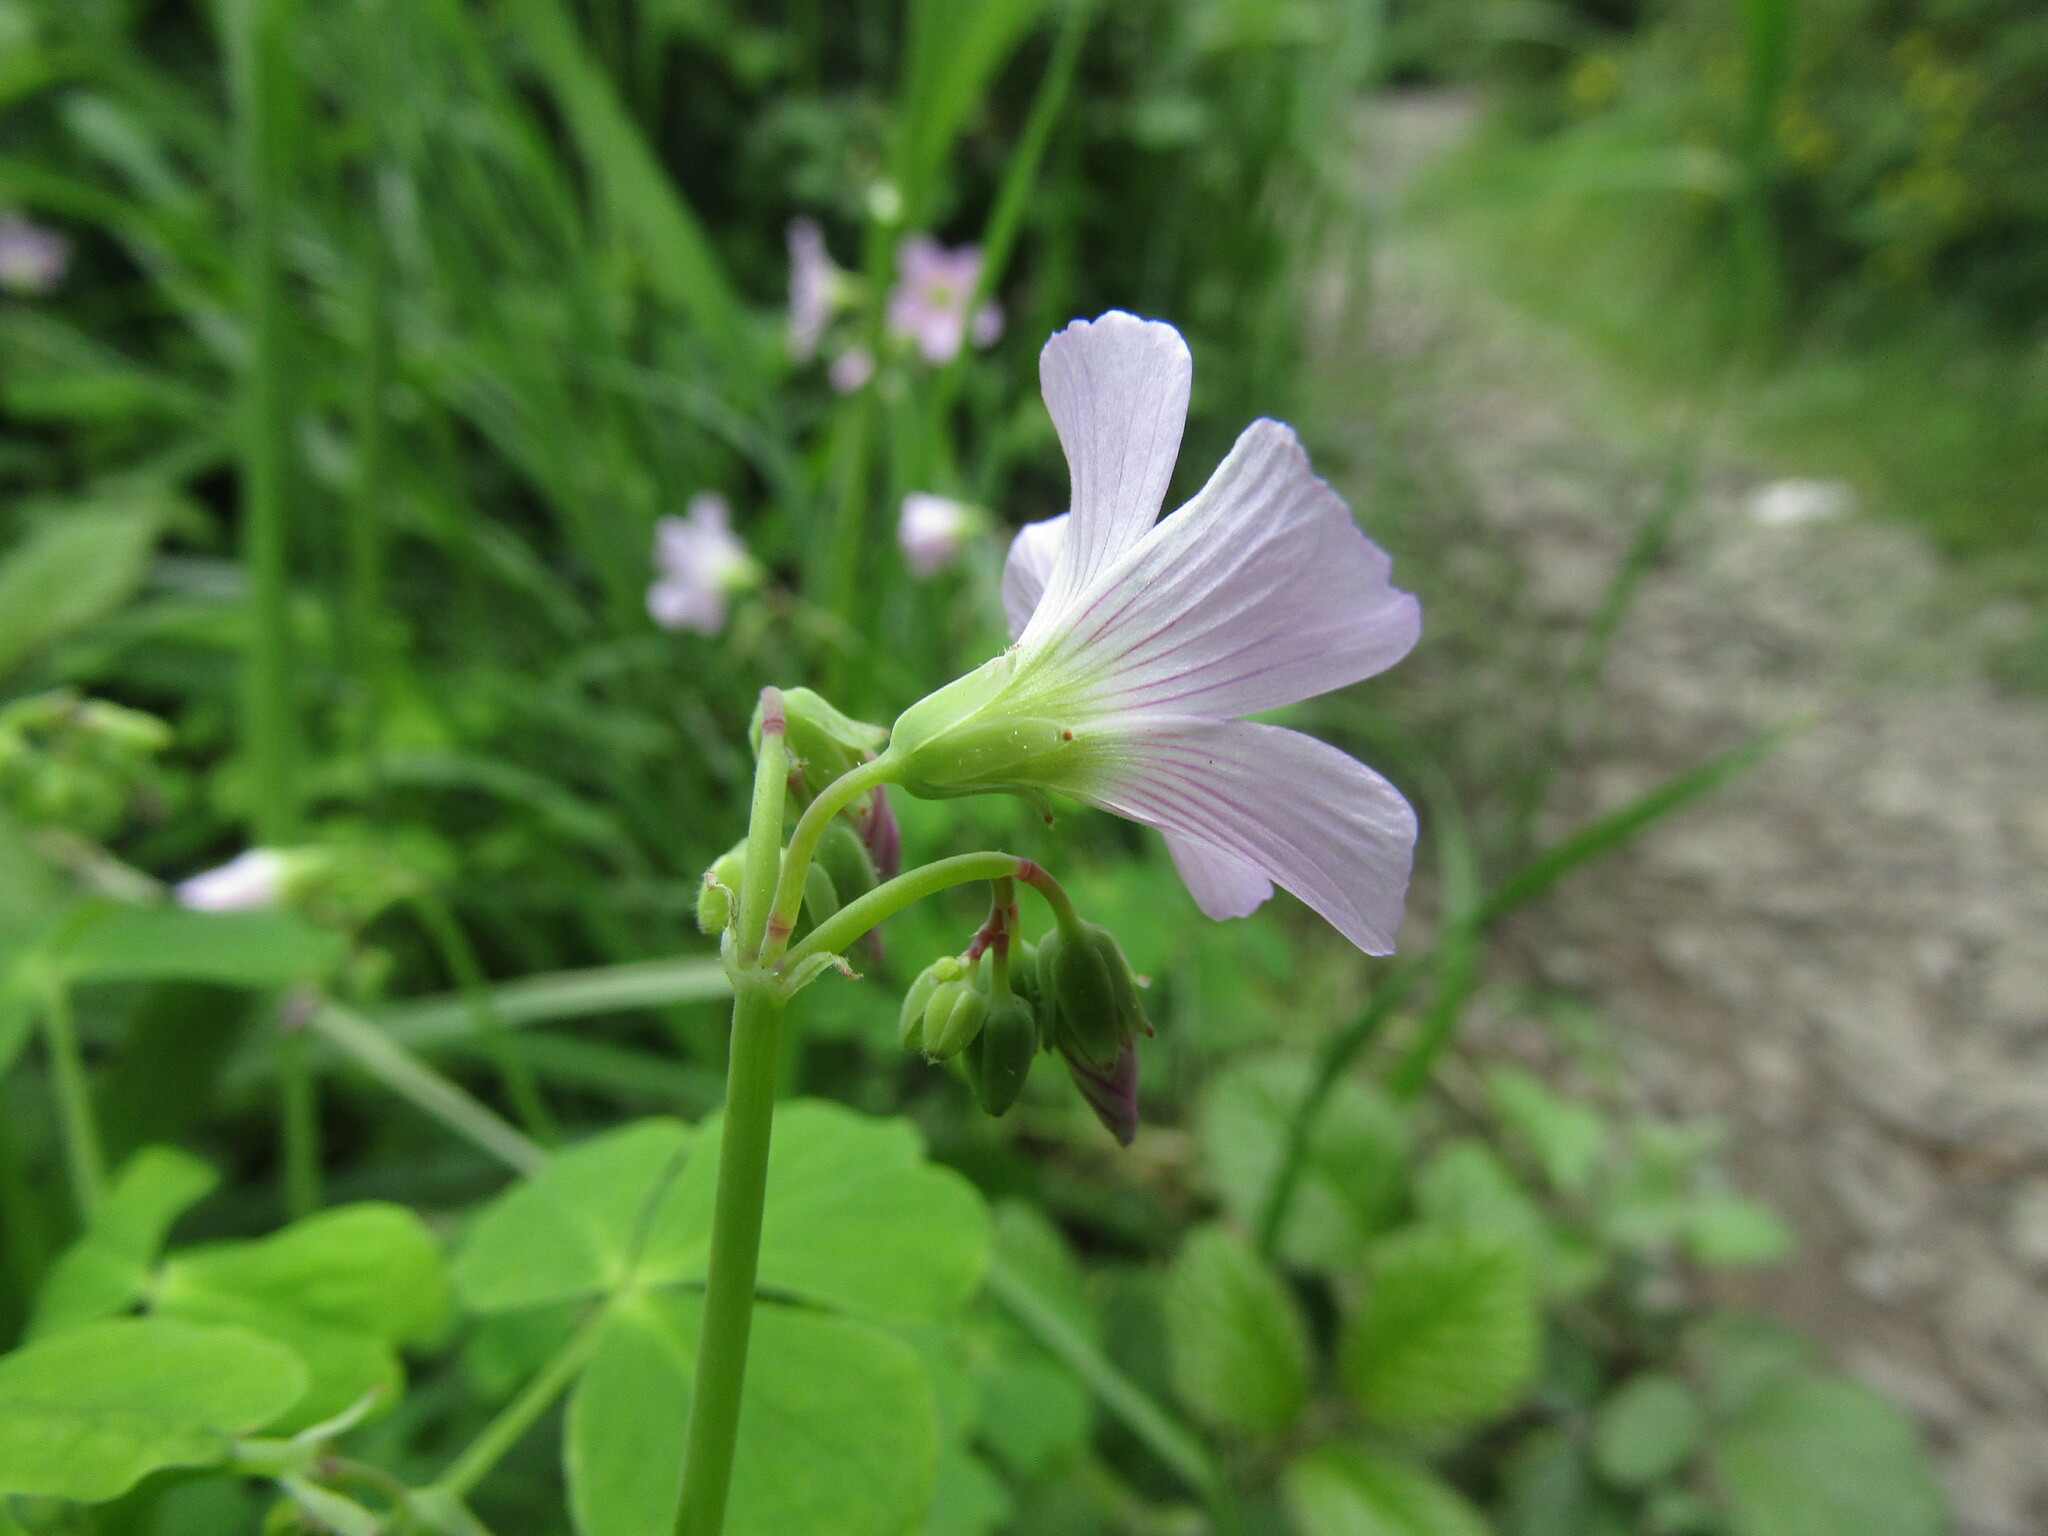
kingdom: Plantae
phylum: Tracheophyta
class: Magnoliopsida
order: Oxalidales
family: Oxalidaceae
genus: Oxalis
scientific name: Oxalis rosea
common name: Annual pink-sorrel
